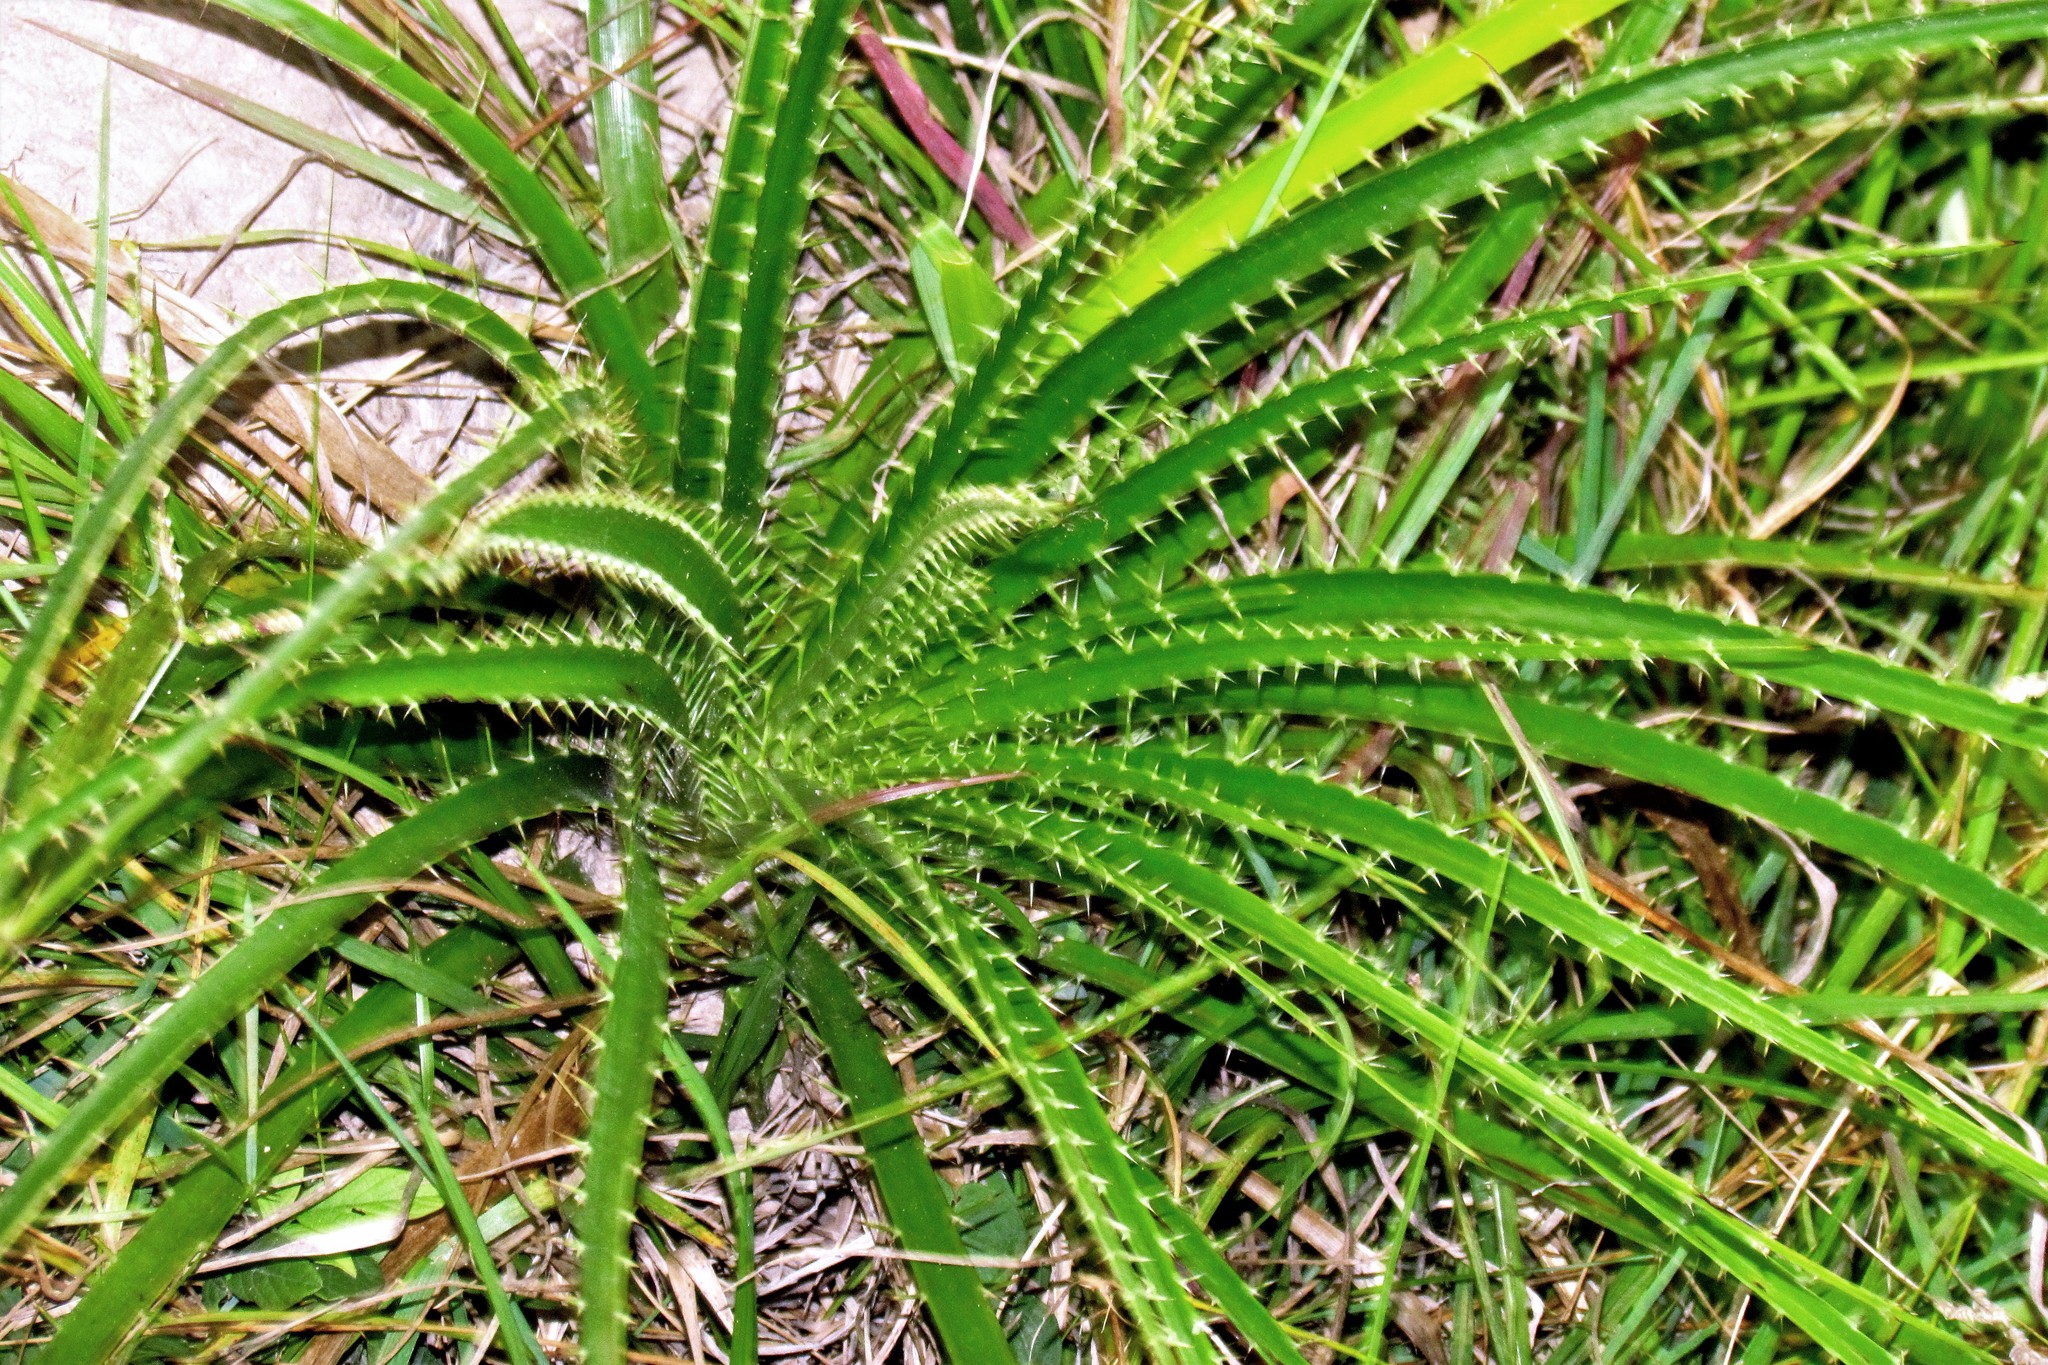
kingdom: Plantae
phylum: Tracheophyta
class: Magnoliopsida
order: Apiales
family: Apiaceae
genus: Eryngium
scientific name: Eryngium horridum
